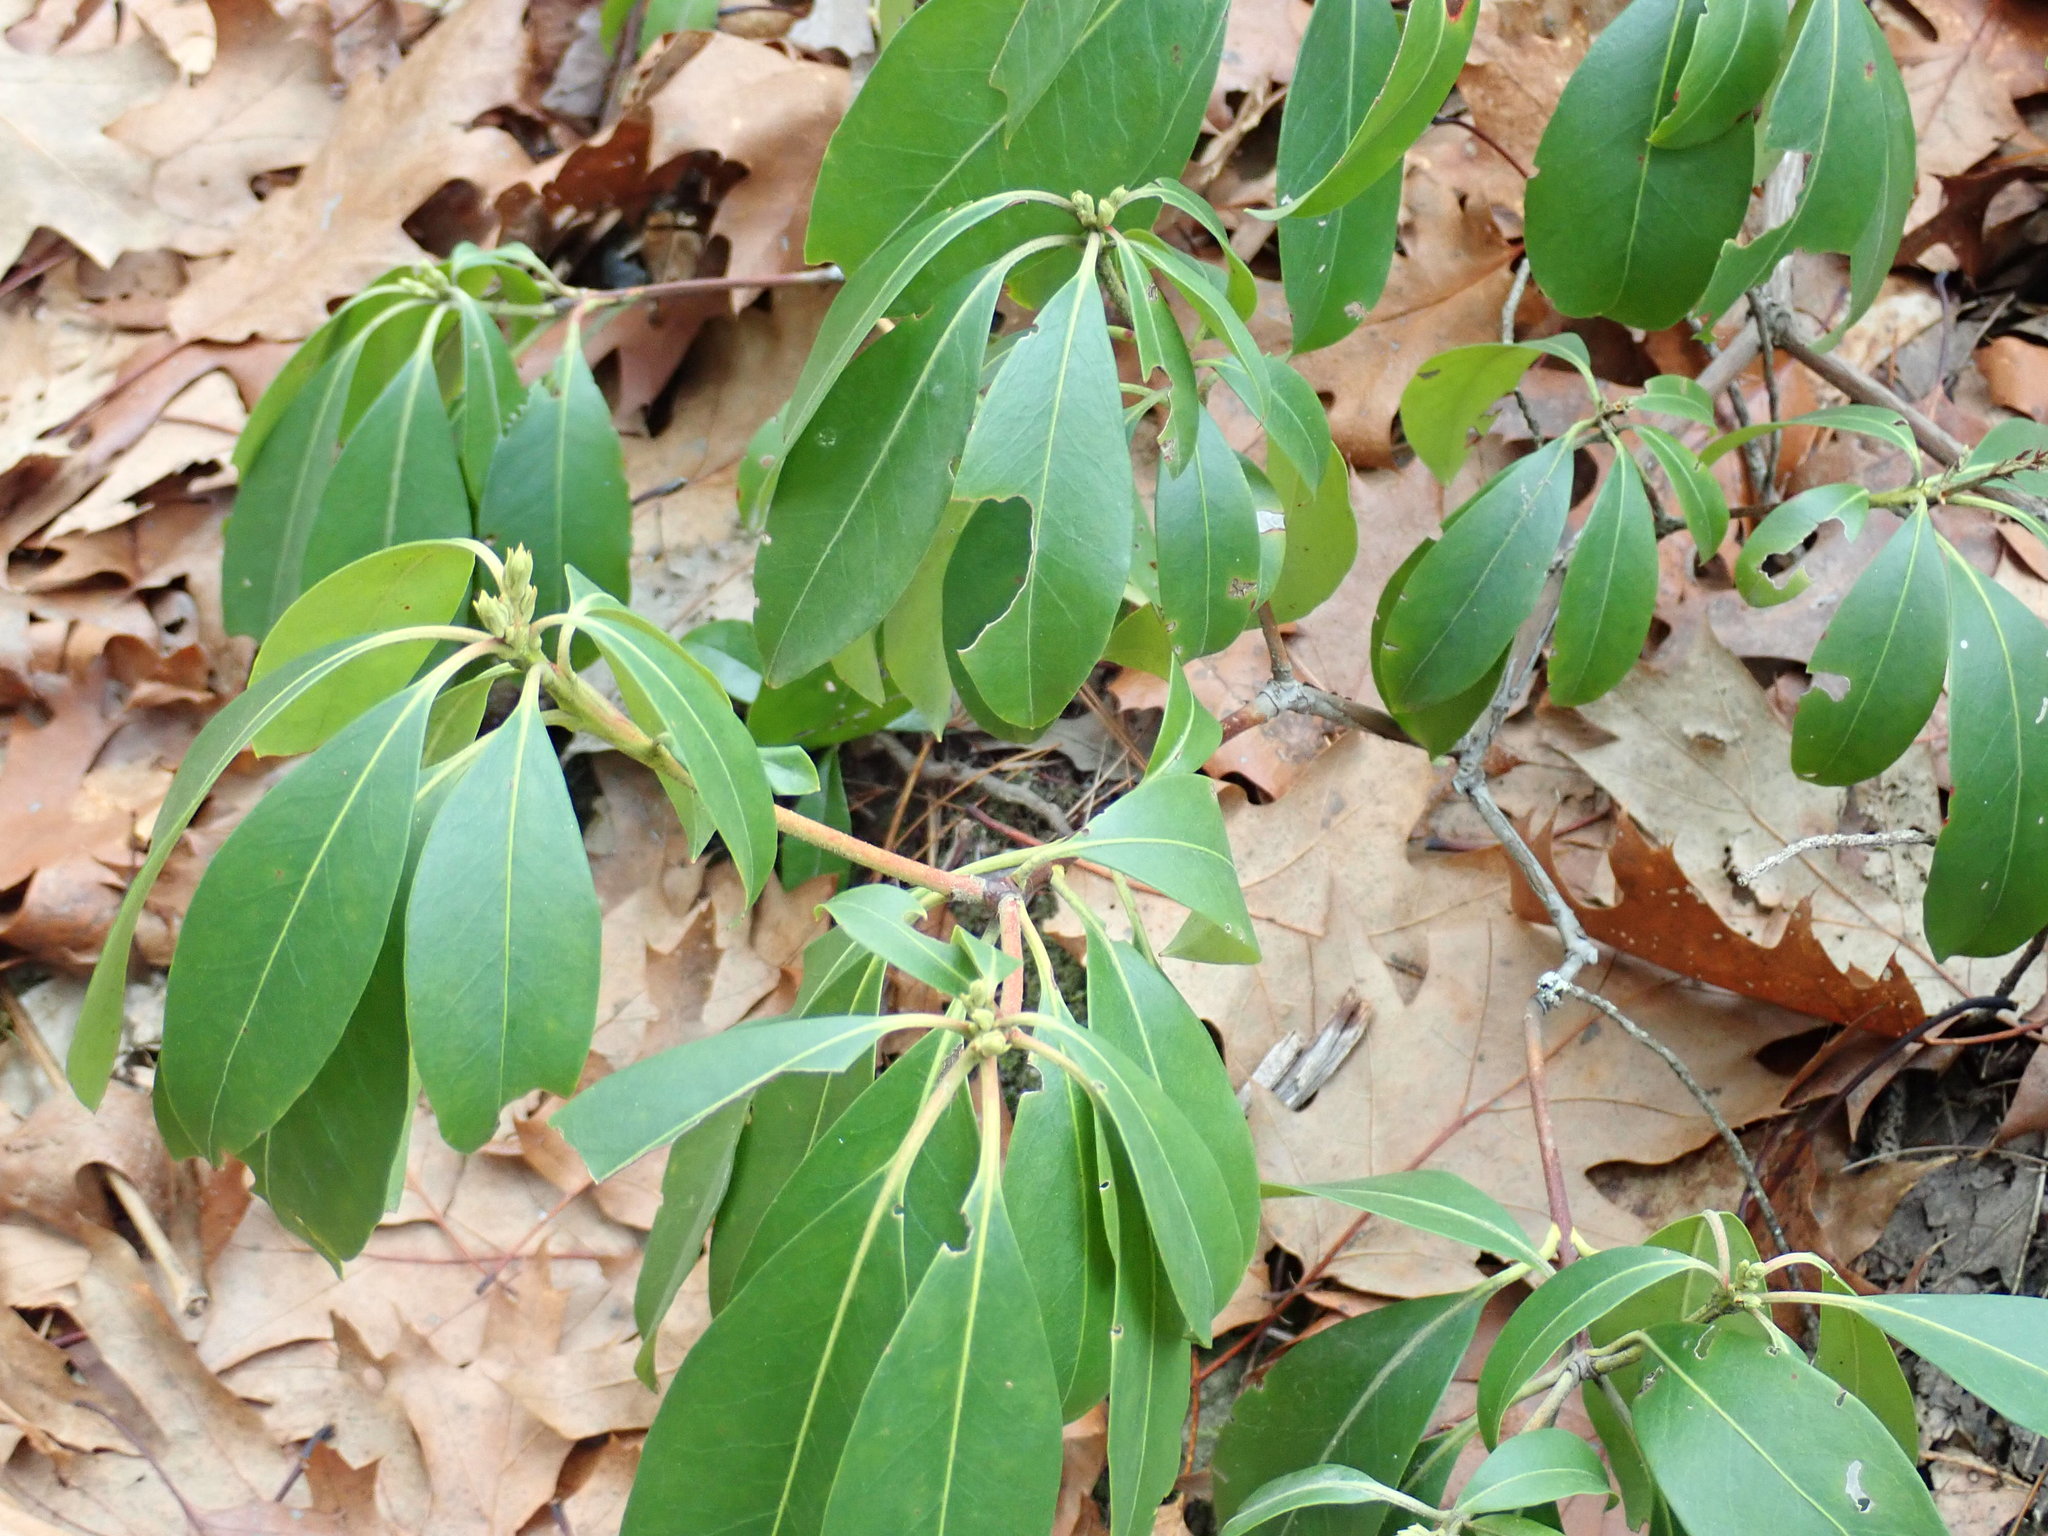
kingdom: Plantae
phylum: Tracheophyta
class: Magnoliopsida
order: Ericales
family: Ericaceae
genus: Kalmia
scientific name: Kalmia latifolia
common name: Mountain-laurel
